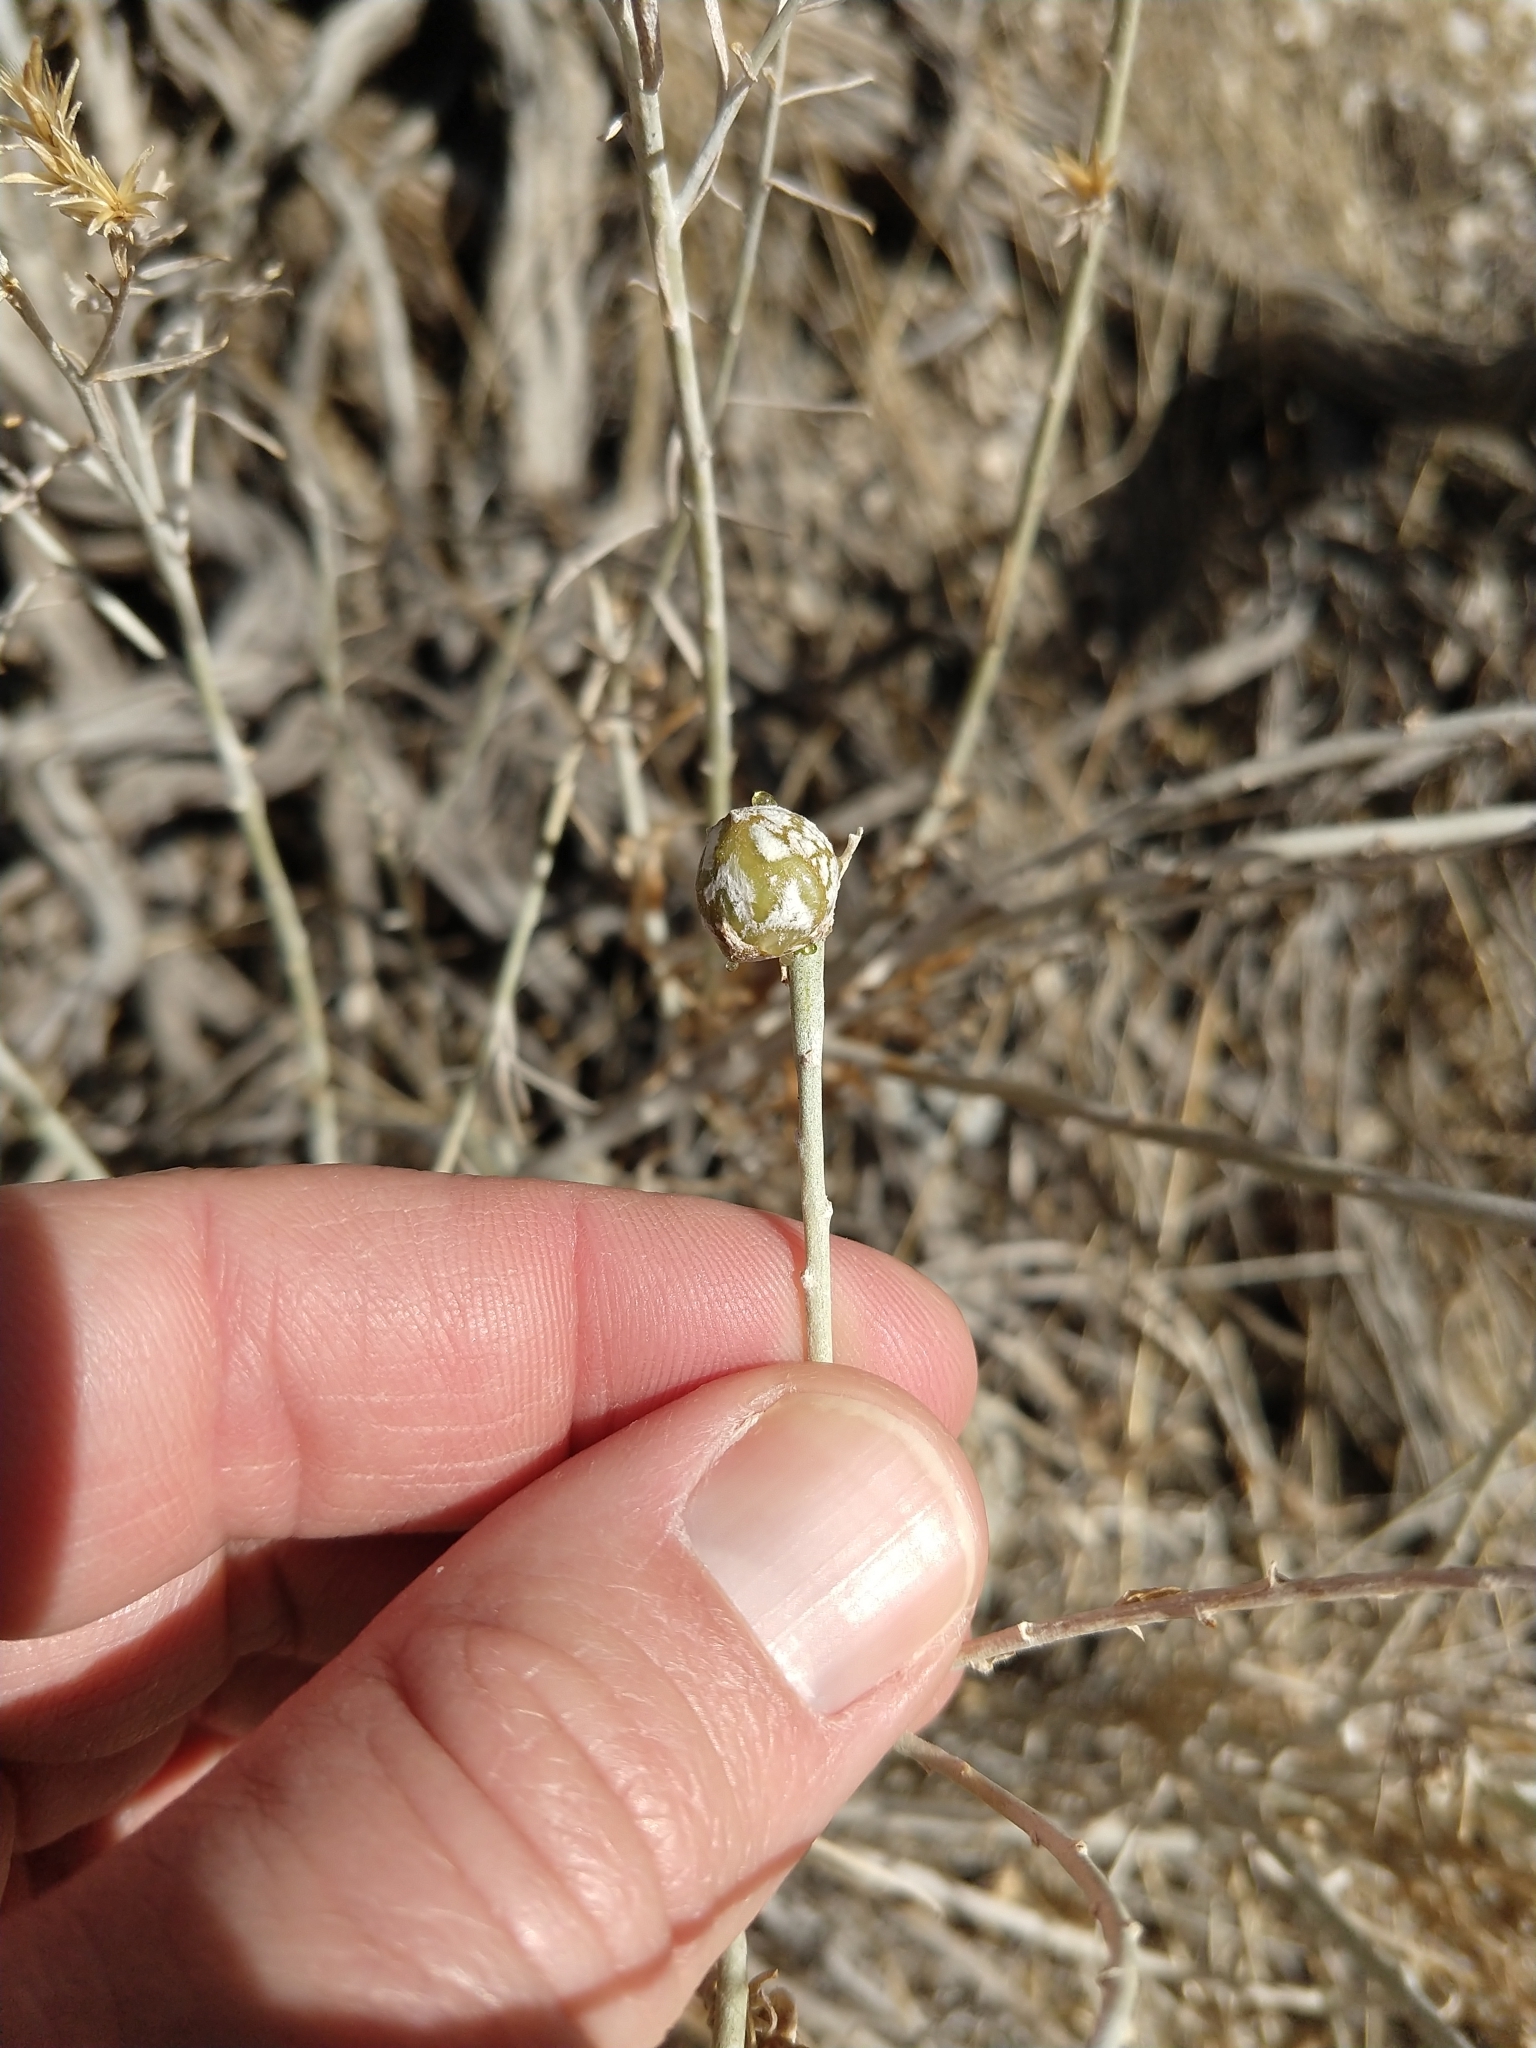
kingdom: Animalia
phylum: Arthropoda
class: Insecta
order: Diptera
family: Tephritidae
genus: Aciurina
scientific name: Aciurina trixa
